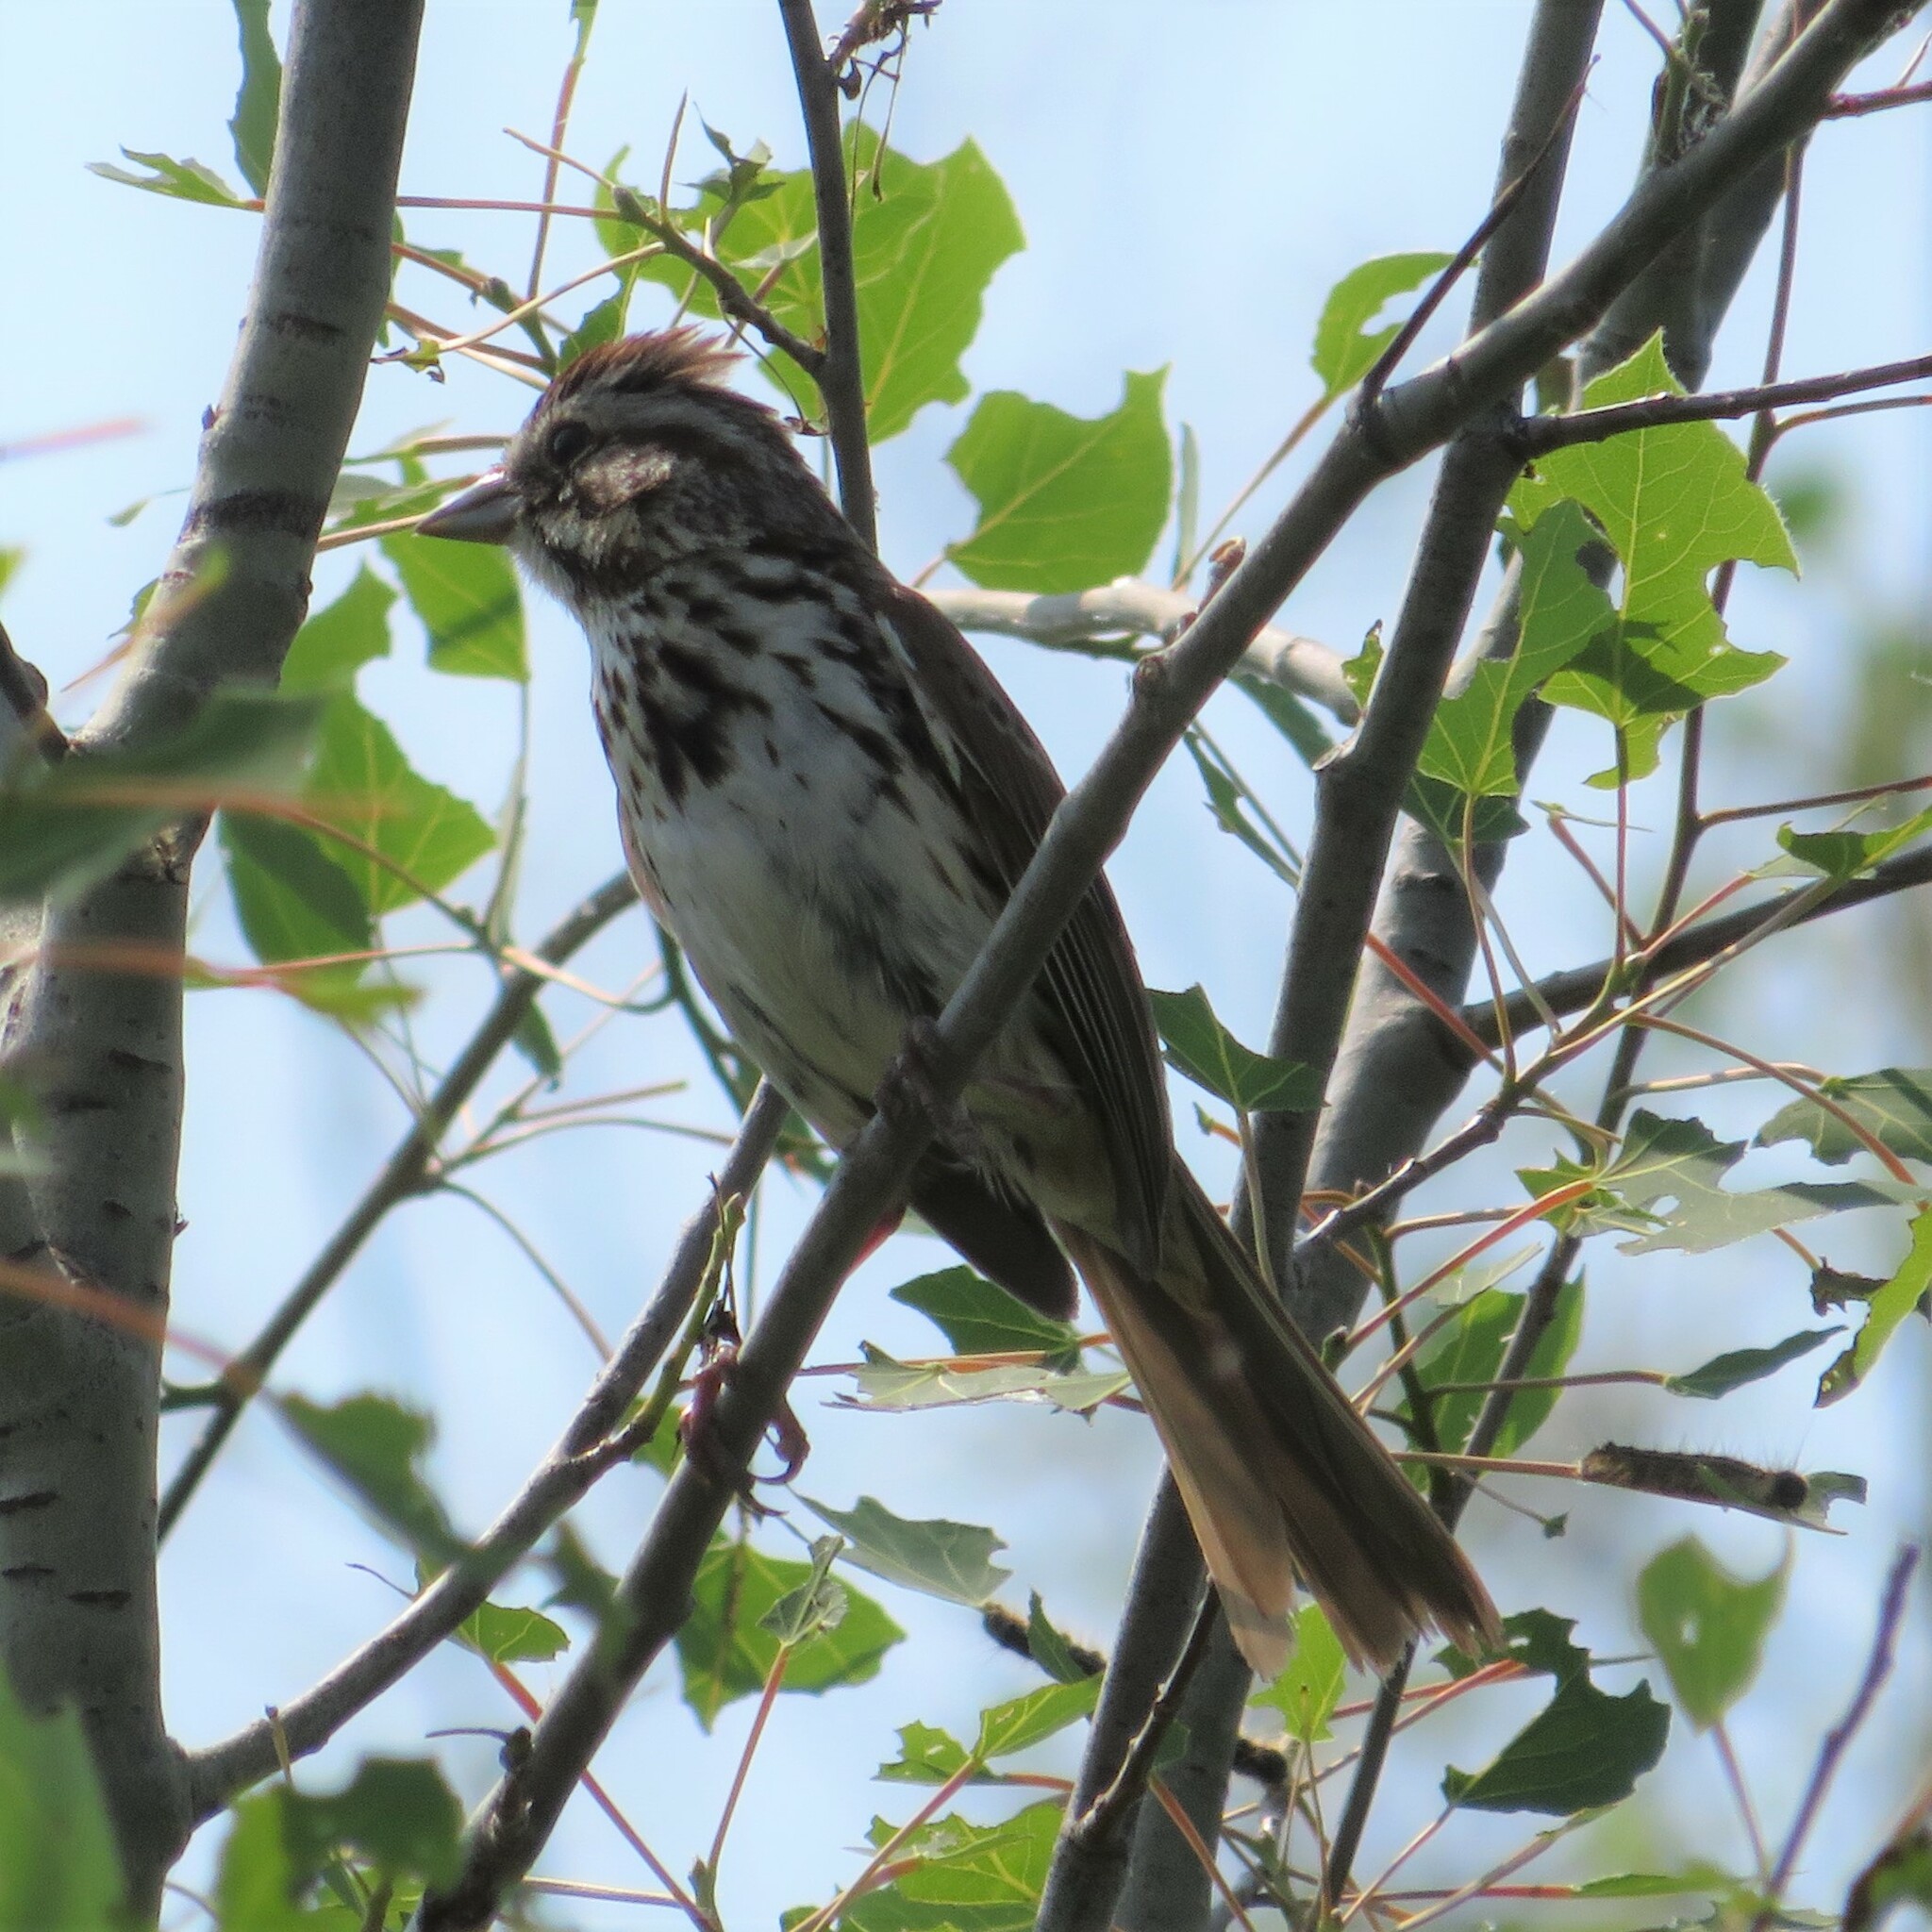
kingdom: Animalia
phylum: Chordata
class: Aves
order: Passeriformes
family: Passerellidae
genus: Melospiza
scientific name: Melospiza melodia
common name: Song sparrow
